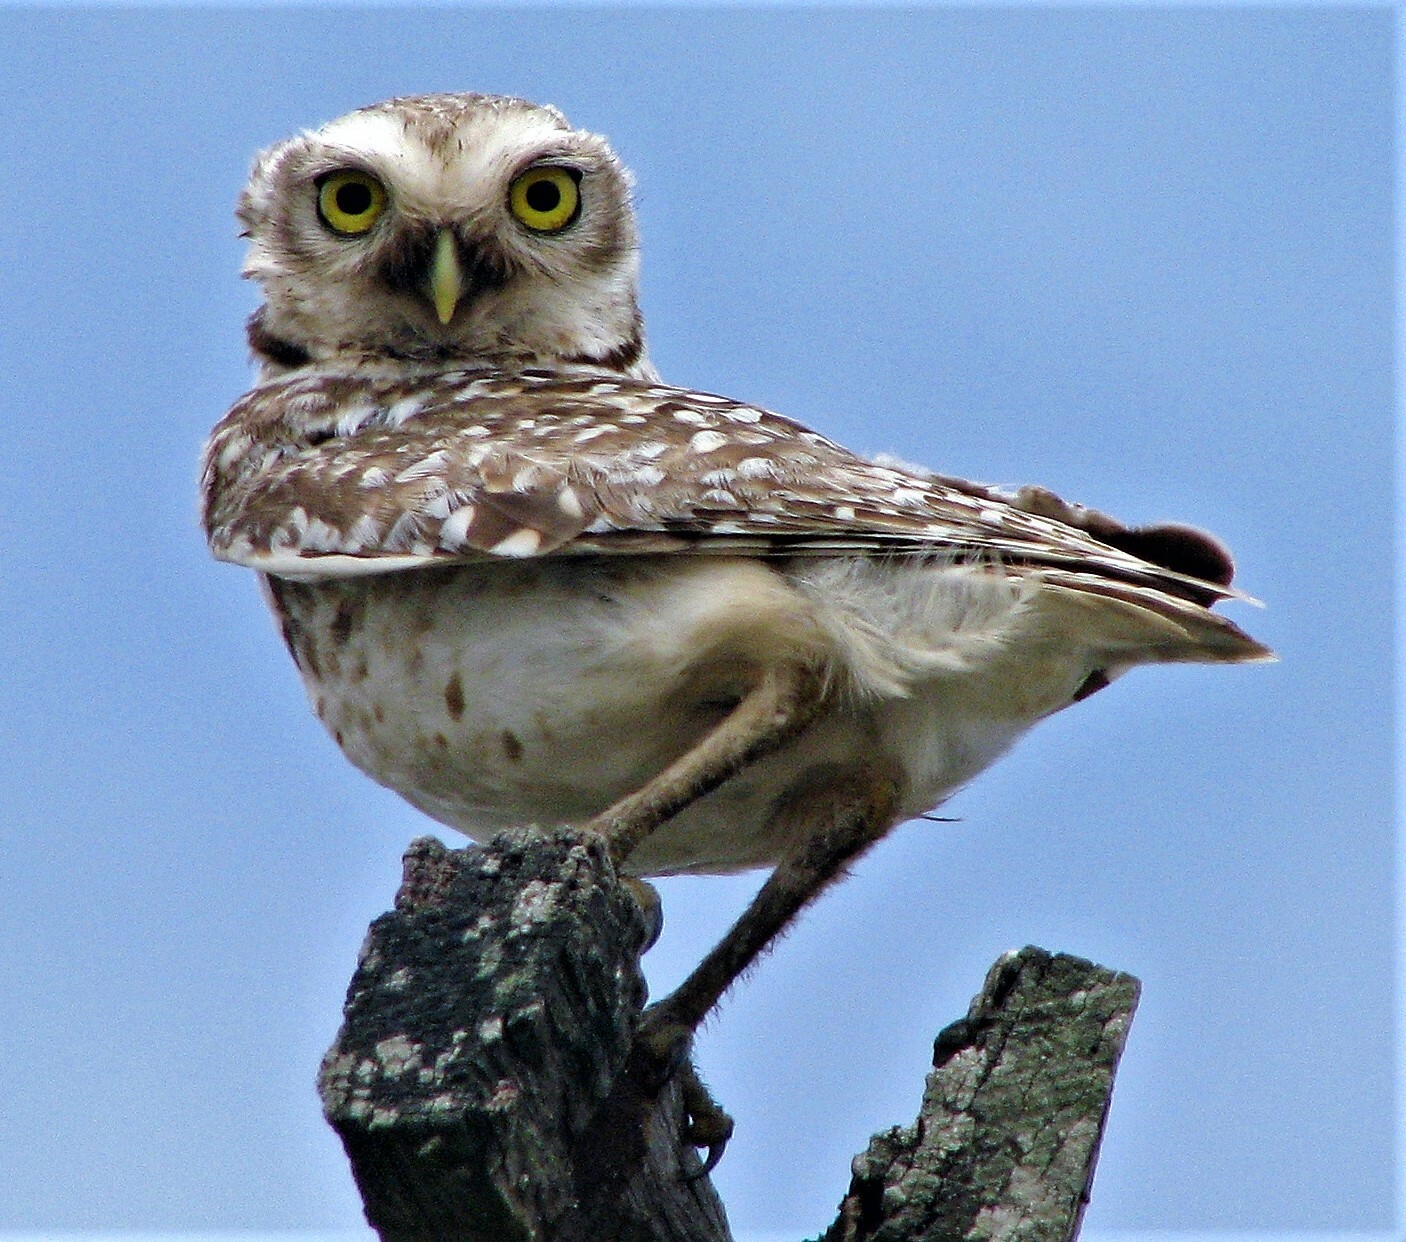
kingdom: Animalia
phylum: Chordata
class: Aves
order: Strigiformes
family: Strigidae
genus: Athene
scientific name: Athene cunicularia
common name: Burrowing owl
